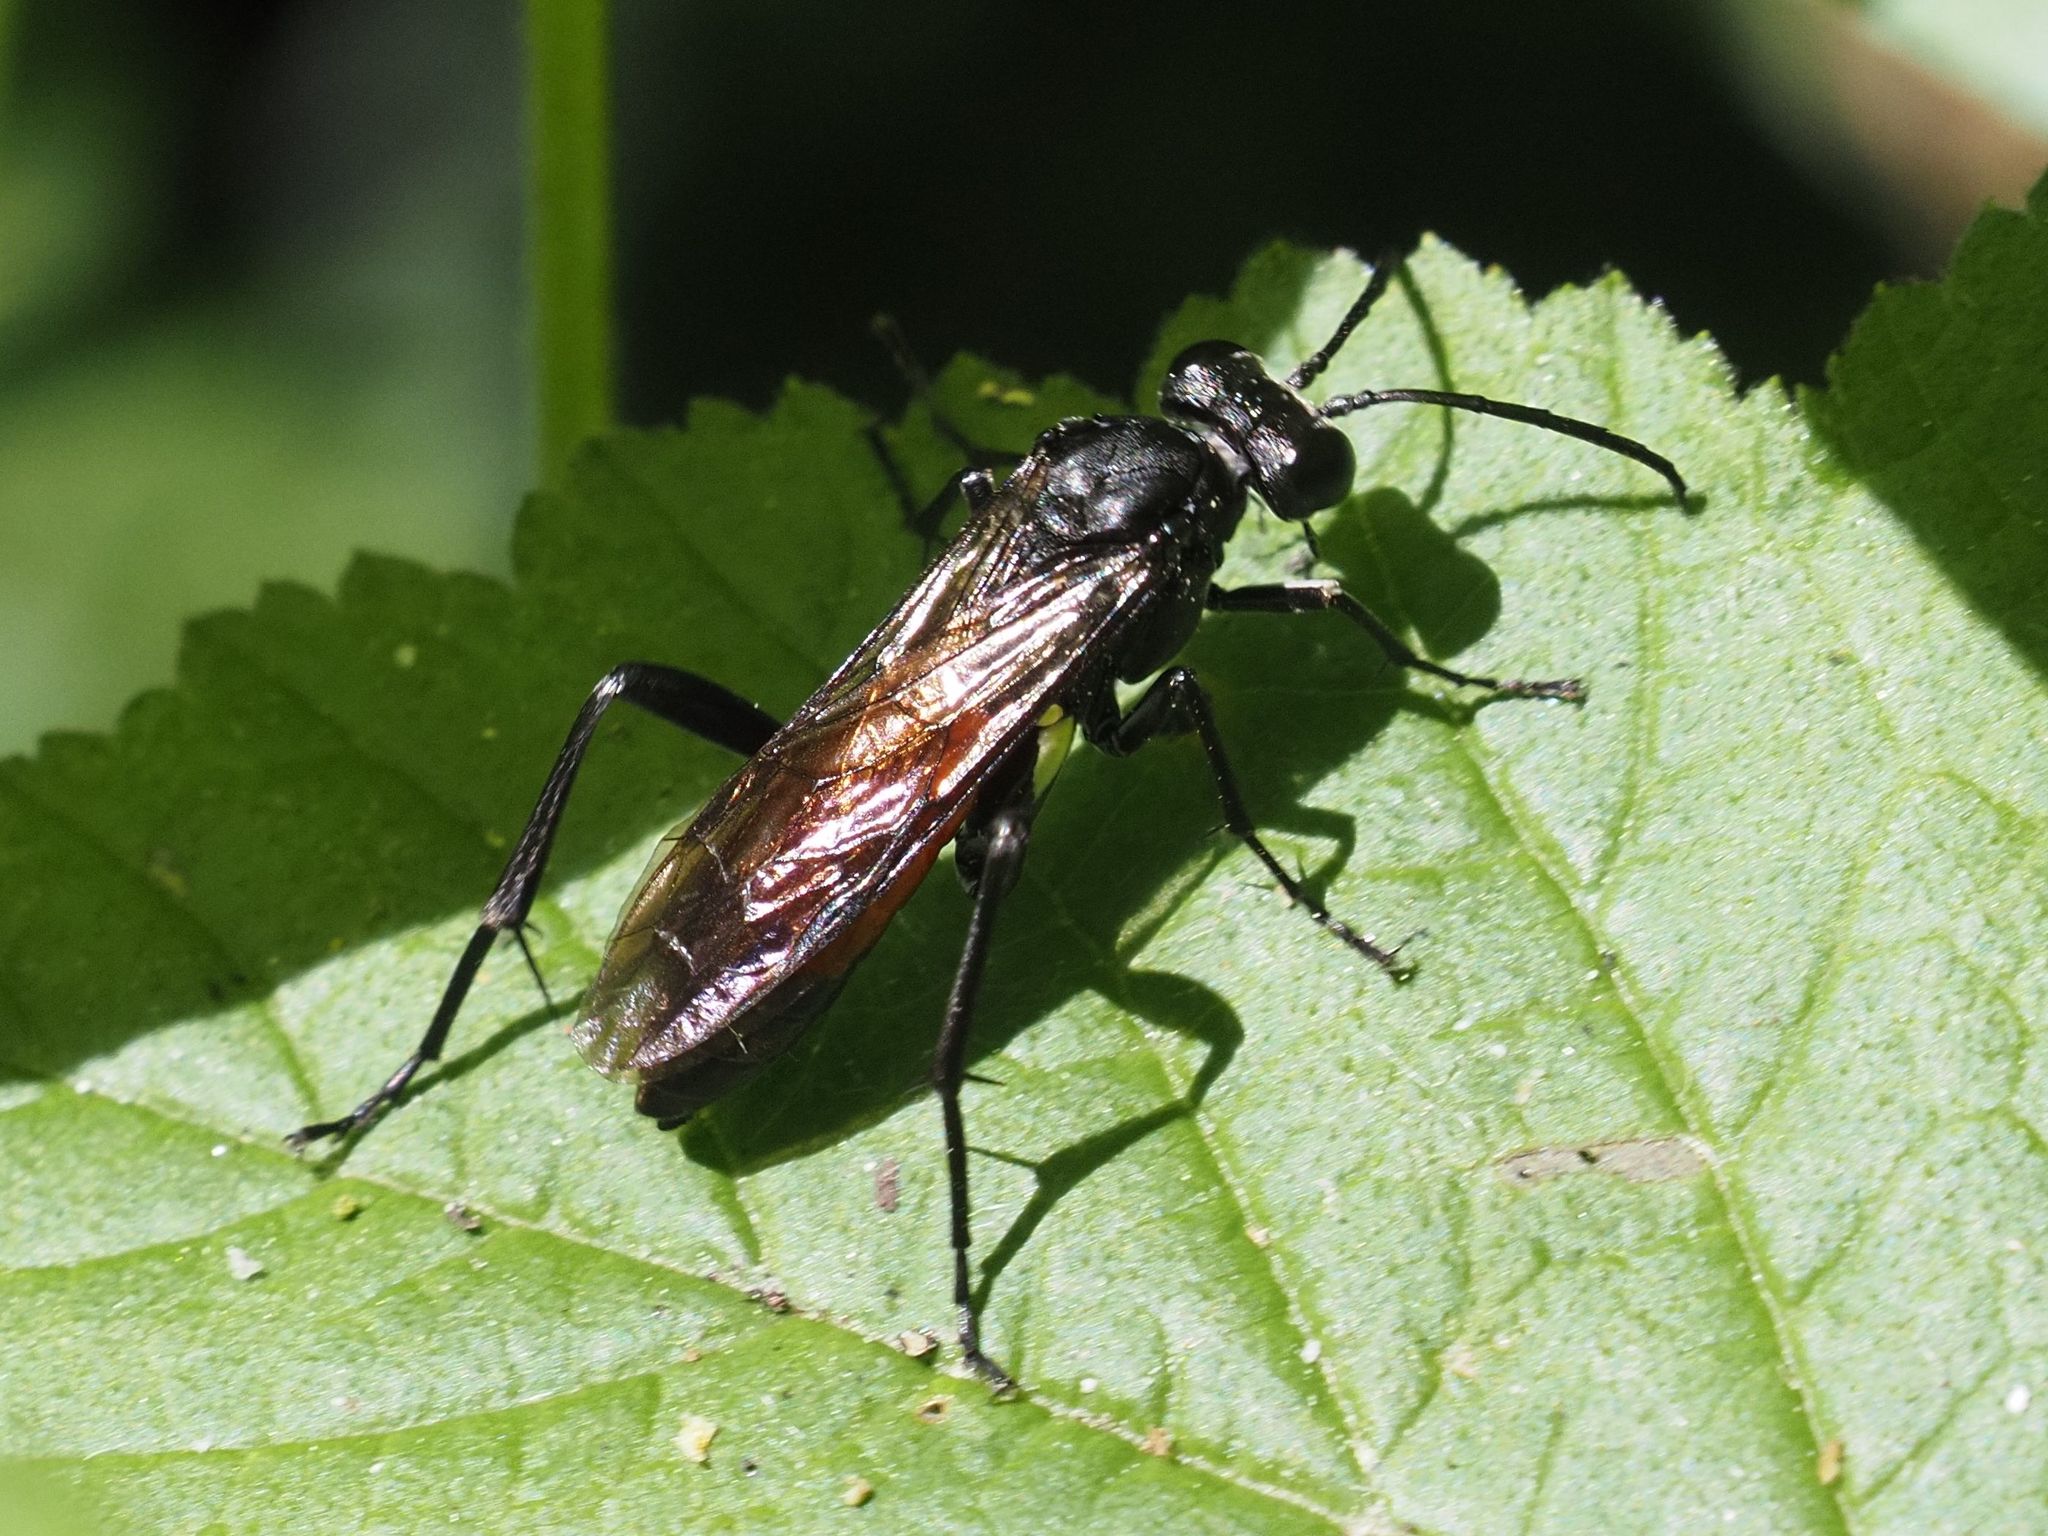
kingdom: Animalia
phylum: Arthropoda
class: Insecta
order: Hymenoptera
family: Tenthredinidae
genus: Macrophya
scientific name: Macrophya blanda
